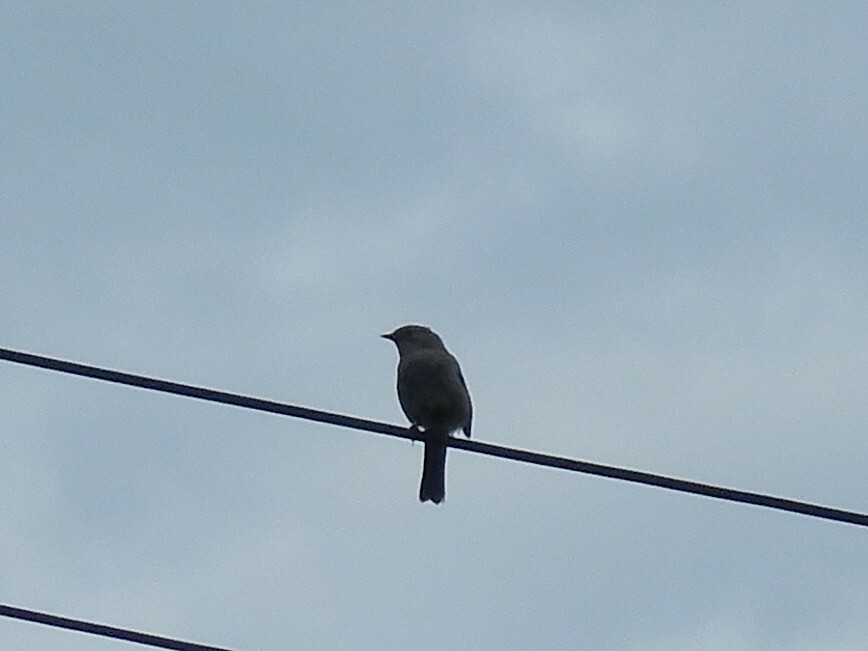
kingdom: Animalia
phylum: Chordata
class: Aves
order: Passeriformes
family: Prunellidae
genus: Prunella
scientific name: Prunella modularis
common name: Dunnock
